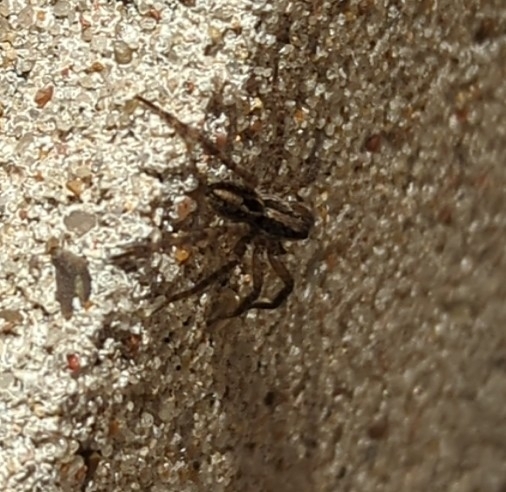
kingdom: Animalia
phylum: Arthropoda
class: Arachnida
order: Araneae
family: Lycosidae
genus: Schizocosa
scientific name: Schizocosa avida
